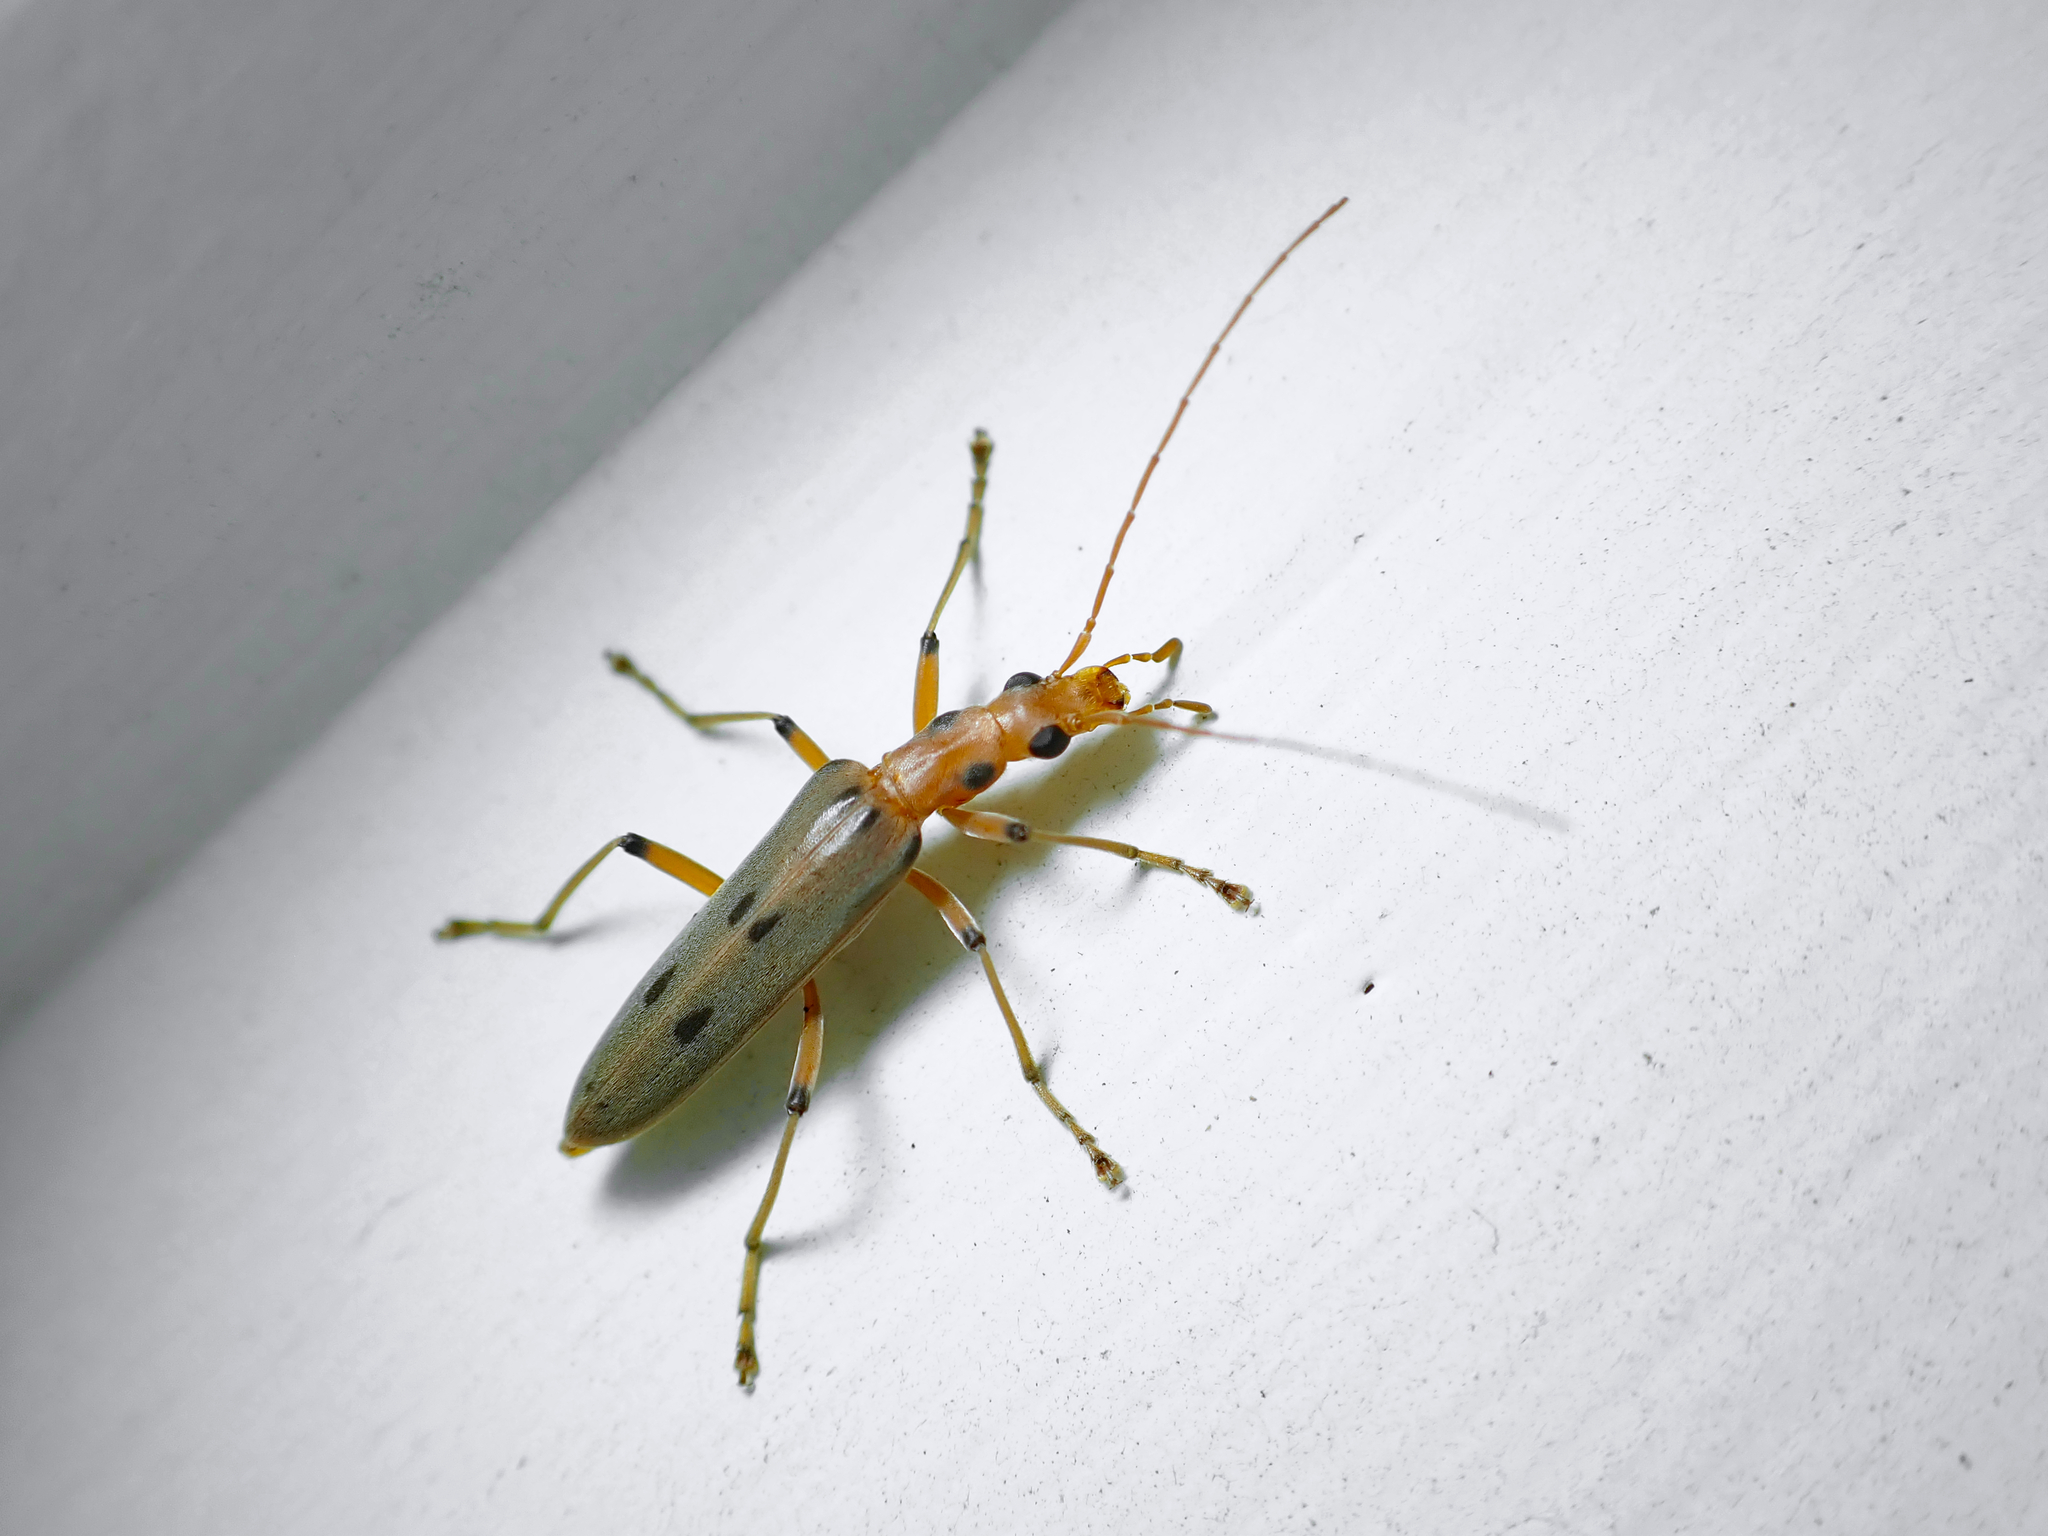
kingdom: Animalia
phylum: Arthropoda
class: Insecta
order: Coleoptera
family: Oedemeridae
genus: Parisopalpus
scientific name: Parisopalpus
